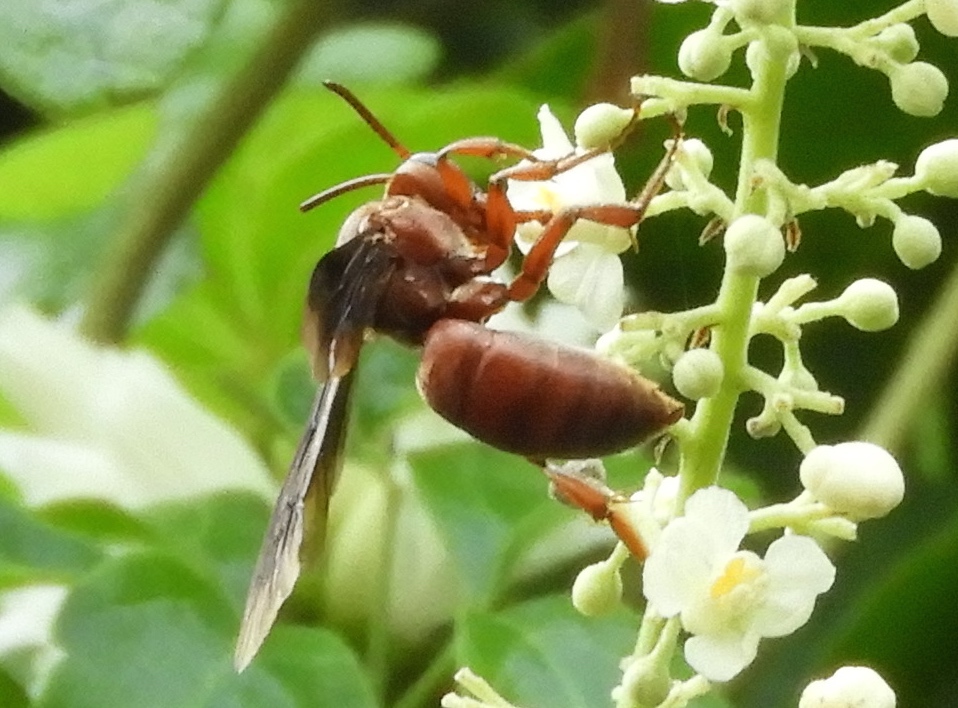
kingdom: Animalia
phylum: Arthropoda
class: Insecta
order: Hymenoptera
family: Apidae
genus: Rhathymus
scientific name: Rhathymus
